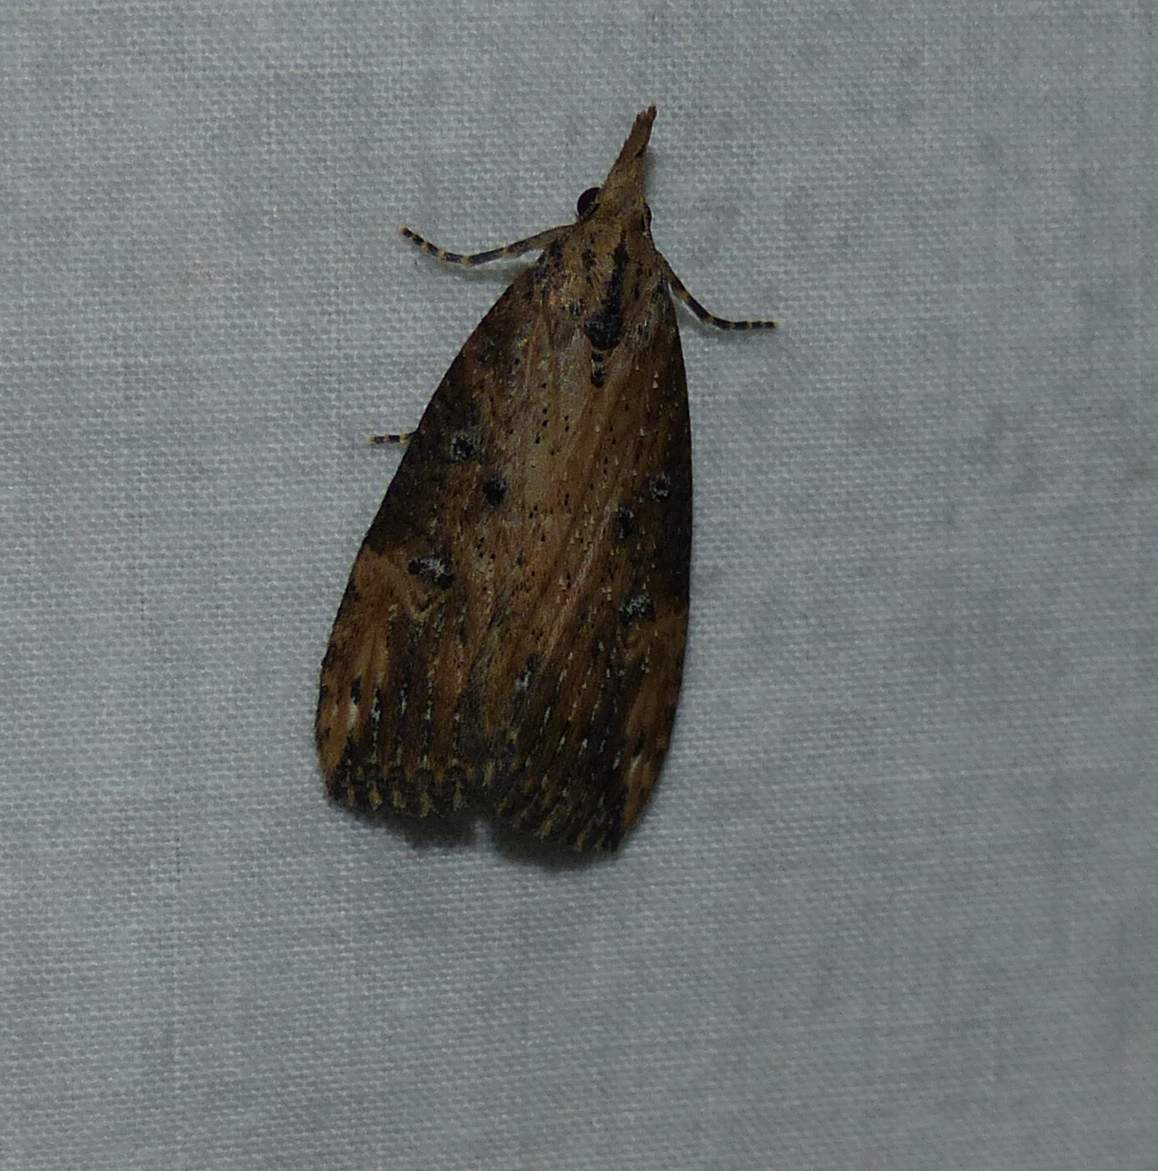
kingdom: Animalia
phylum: Arthropoda
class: Insecta
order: Lepidoptera
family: Erebidae
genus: Hypena
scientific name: Hypena humuli
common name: Hop vine snout
